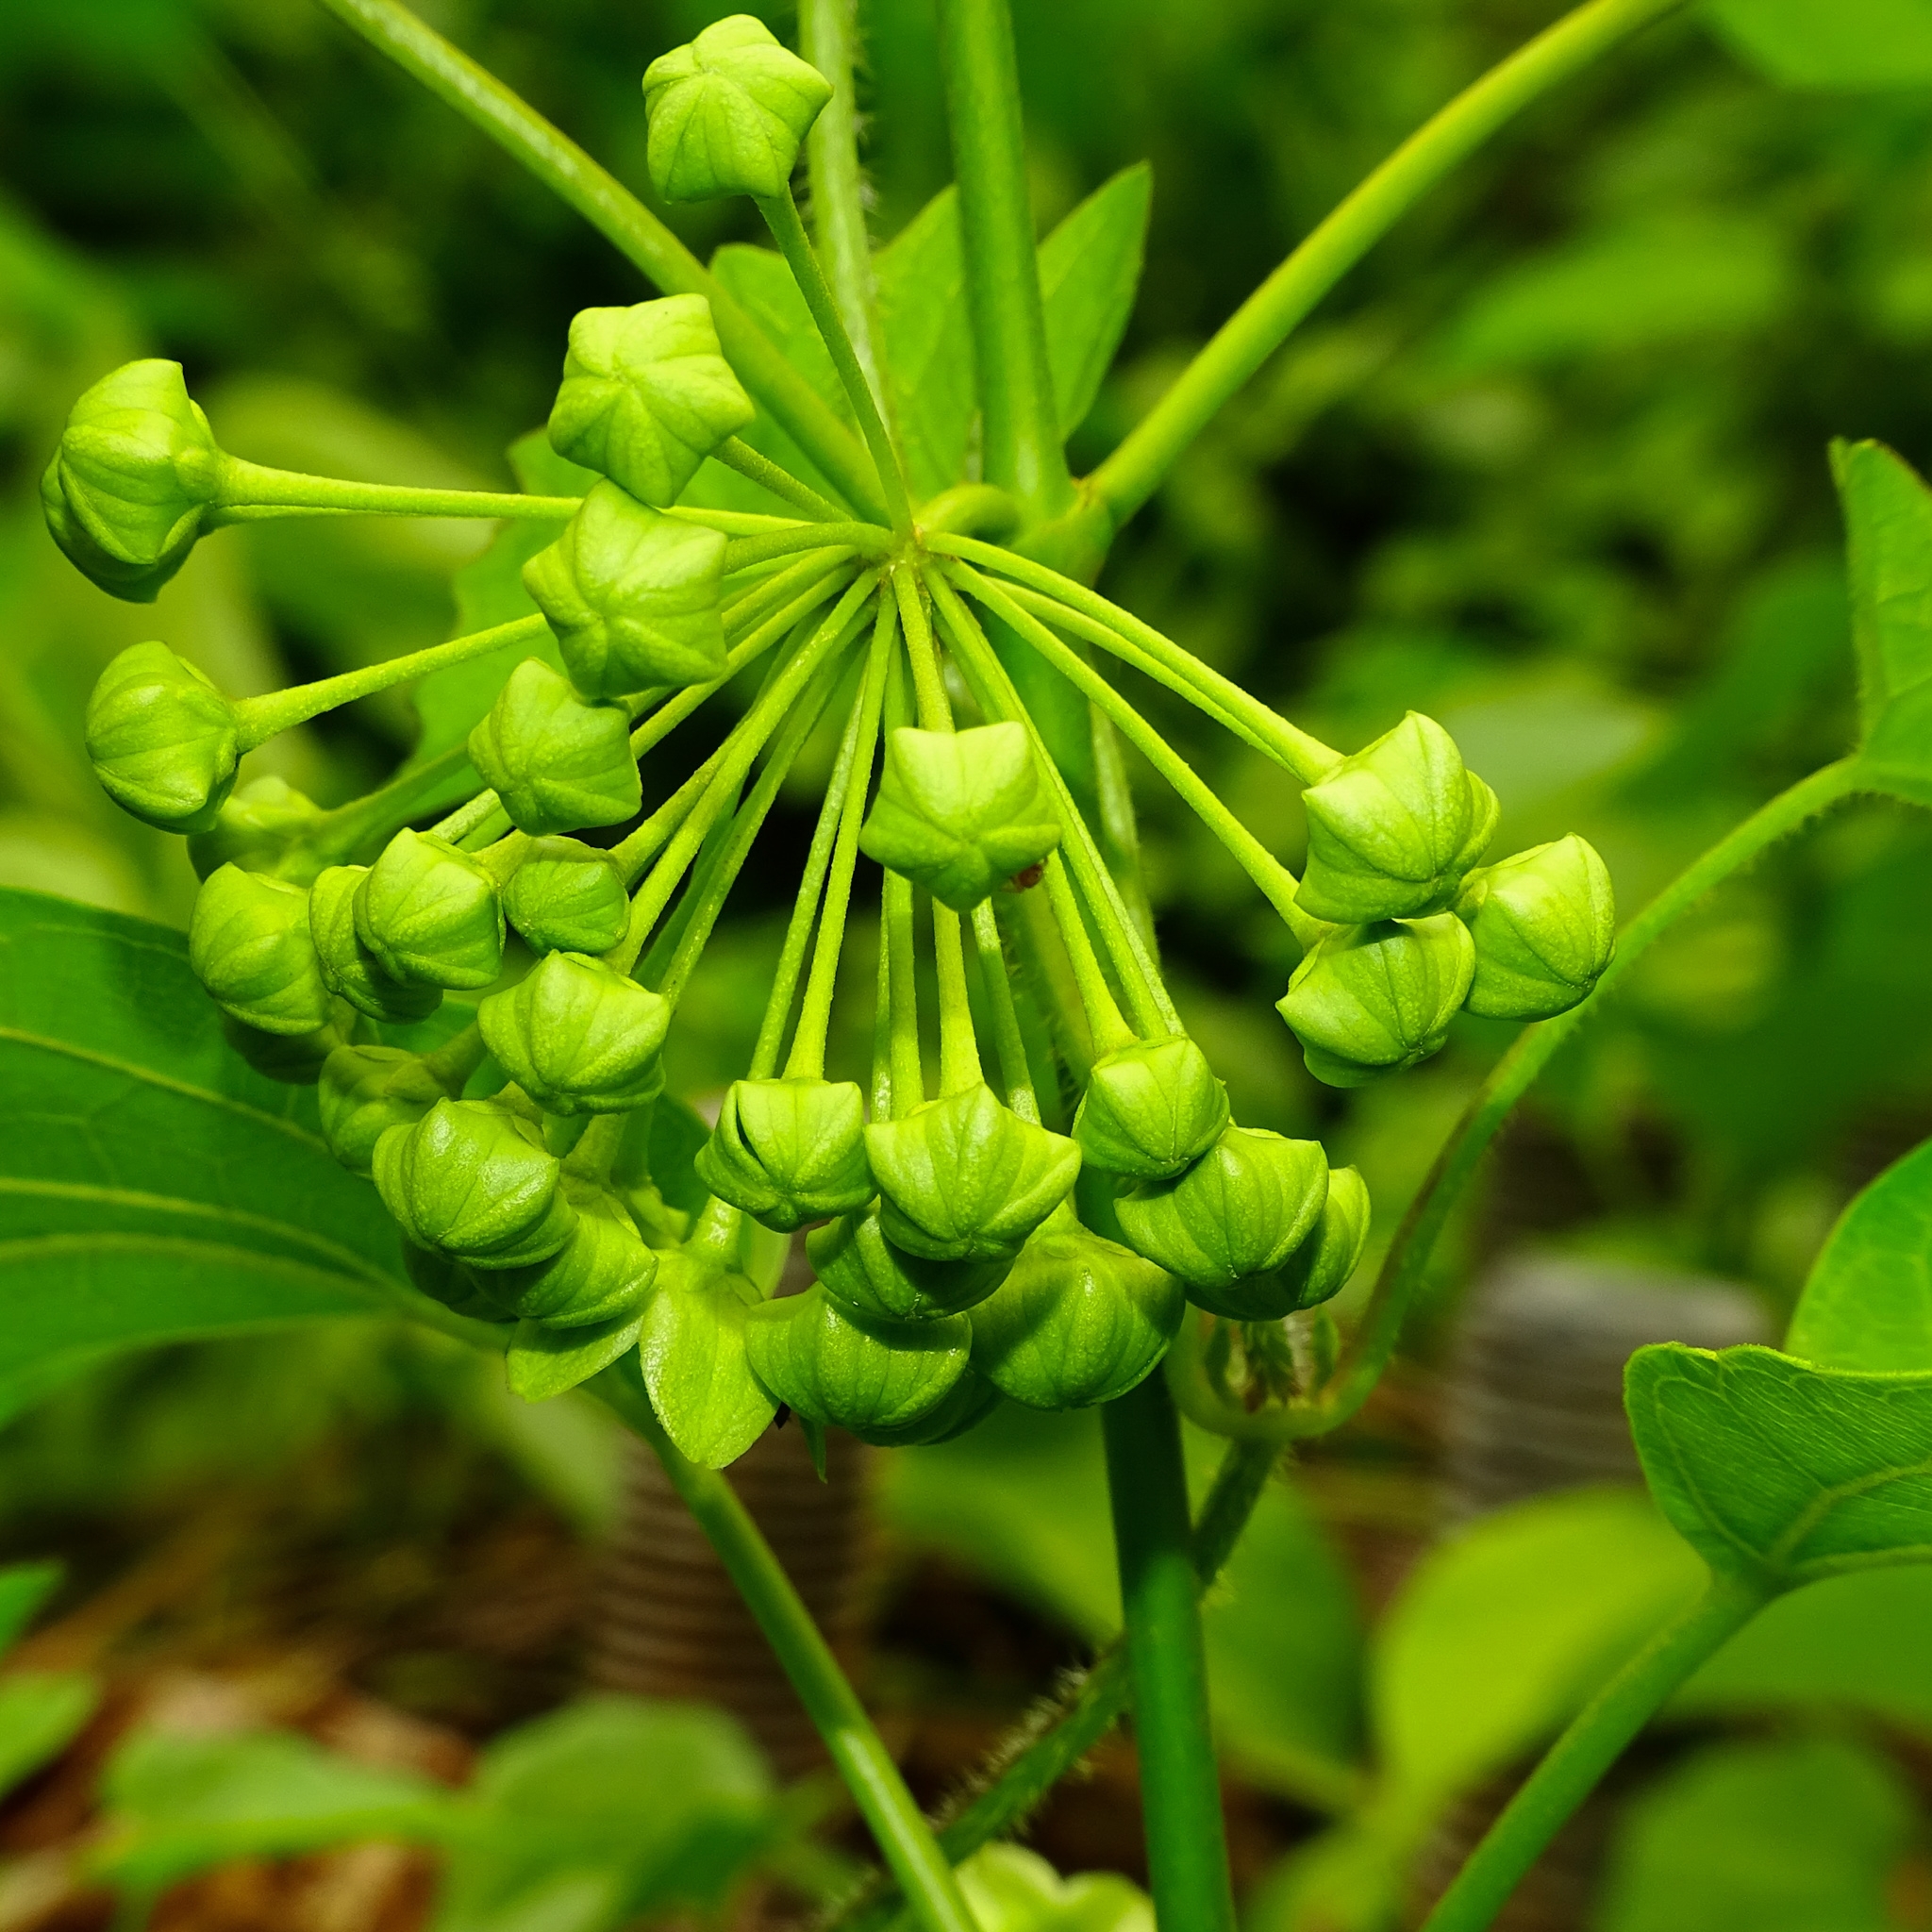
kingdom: Plantae
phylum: Tracheophyta
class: Magnoliopsida
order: Gentianales
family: Apocynaceae
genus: Stephanotis
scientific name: Stephanotis volubilis
